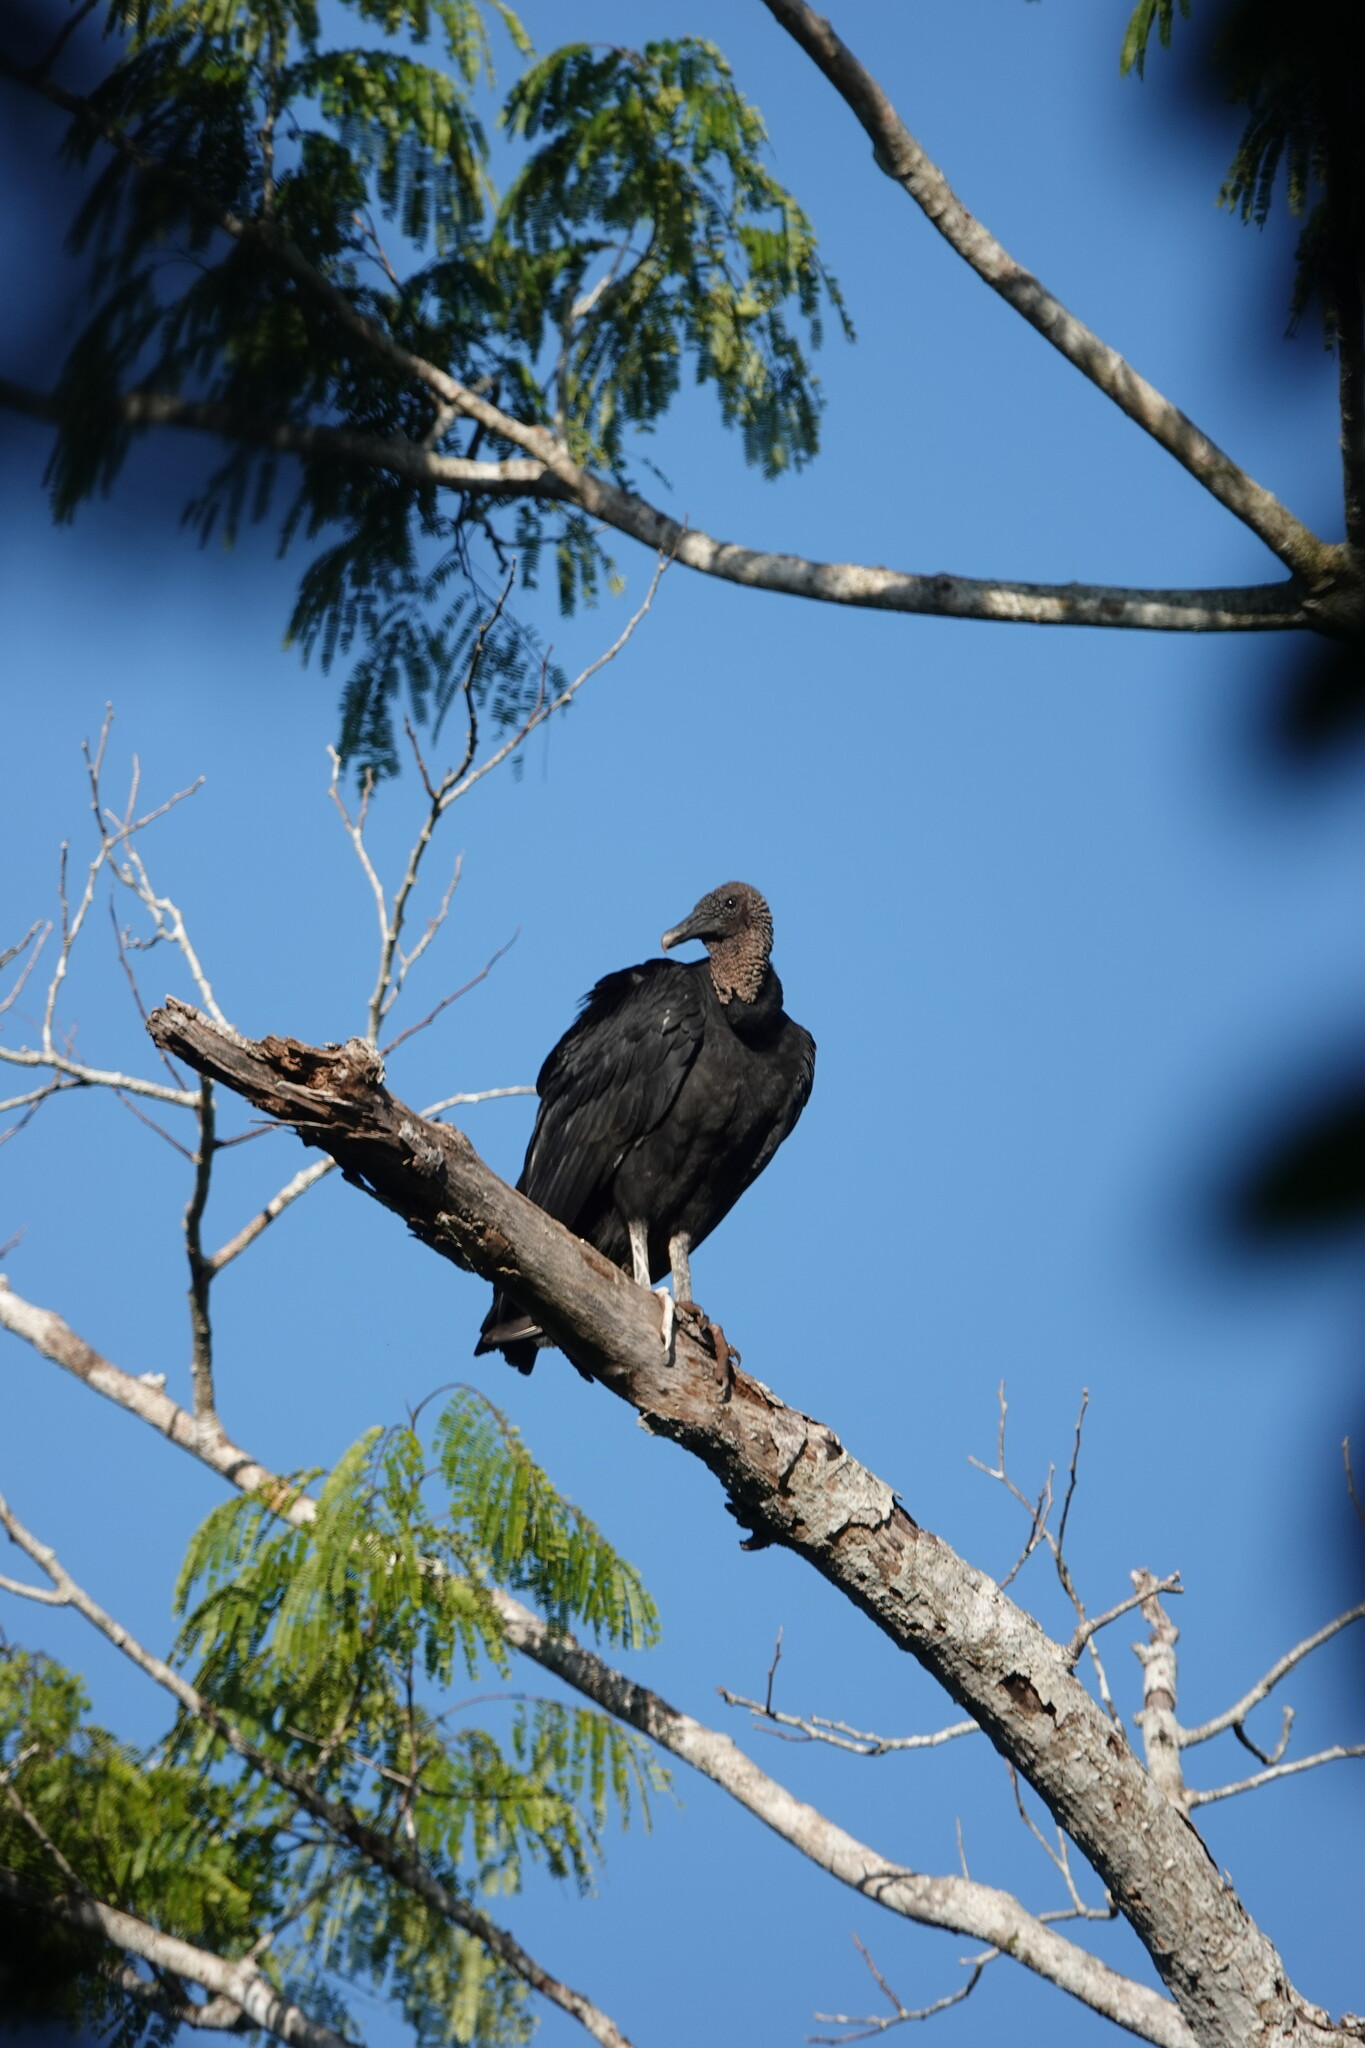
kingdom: Animalia
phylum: Chordata
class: Aves
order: Accipitriformes
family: Cathartidae
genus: Coragyps
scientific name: Coragyps atratus
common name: Black vulture
